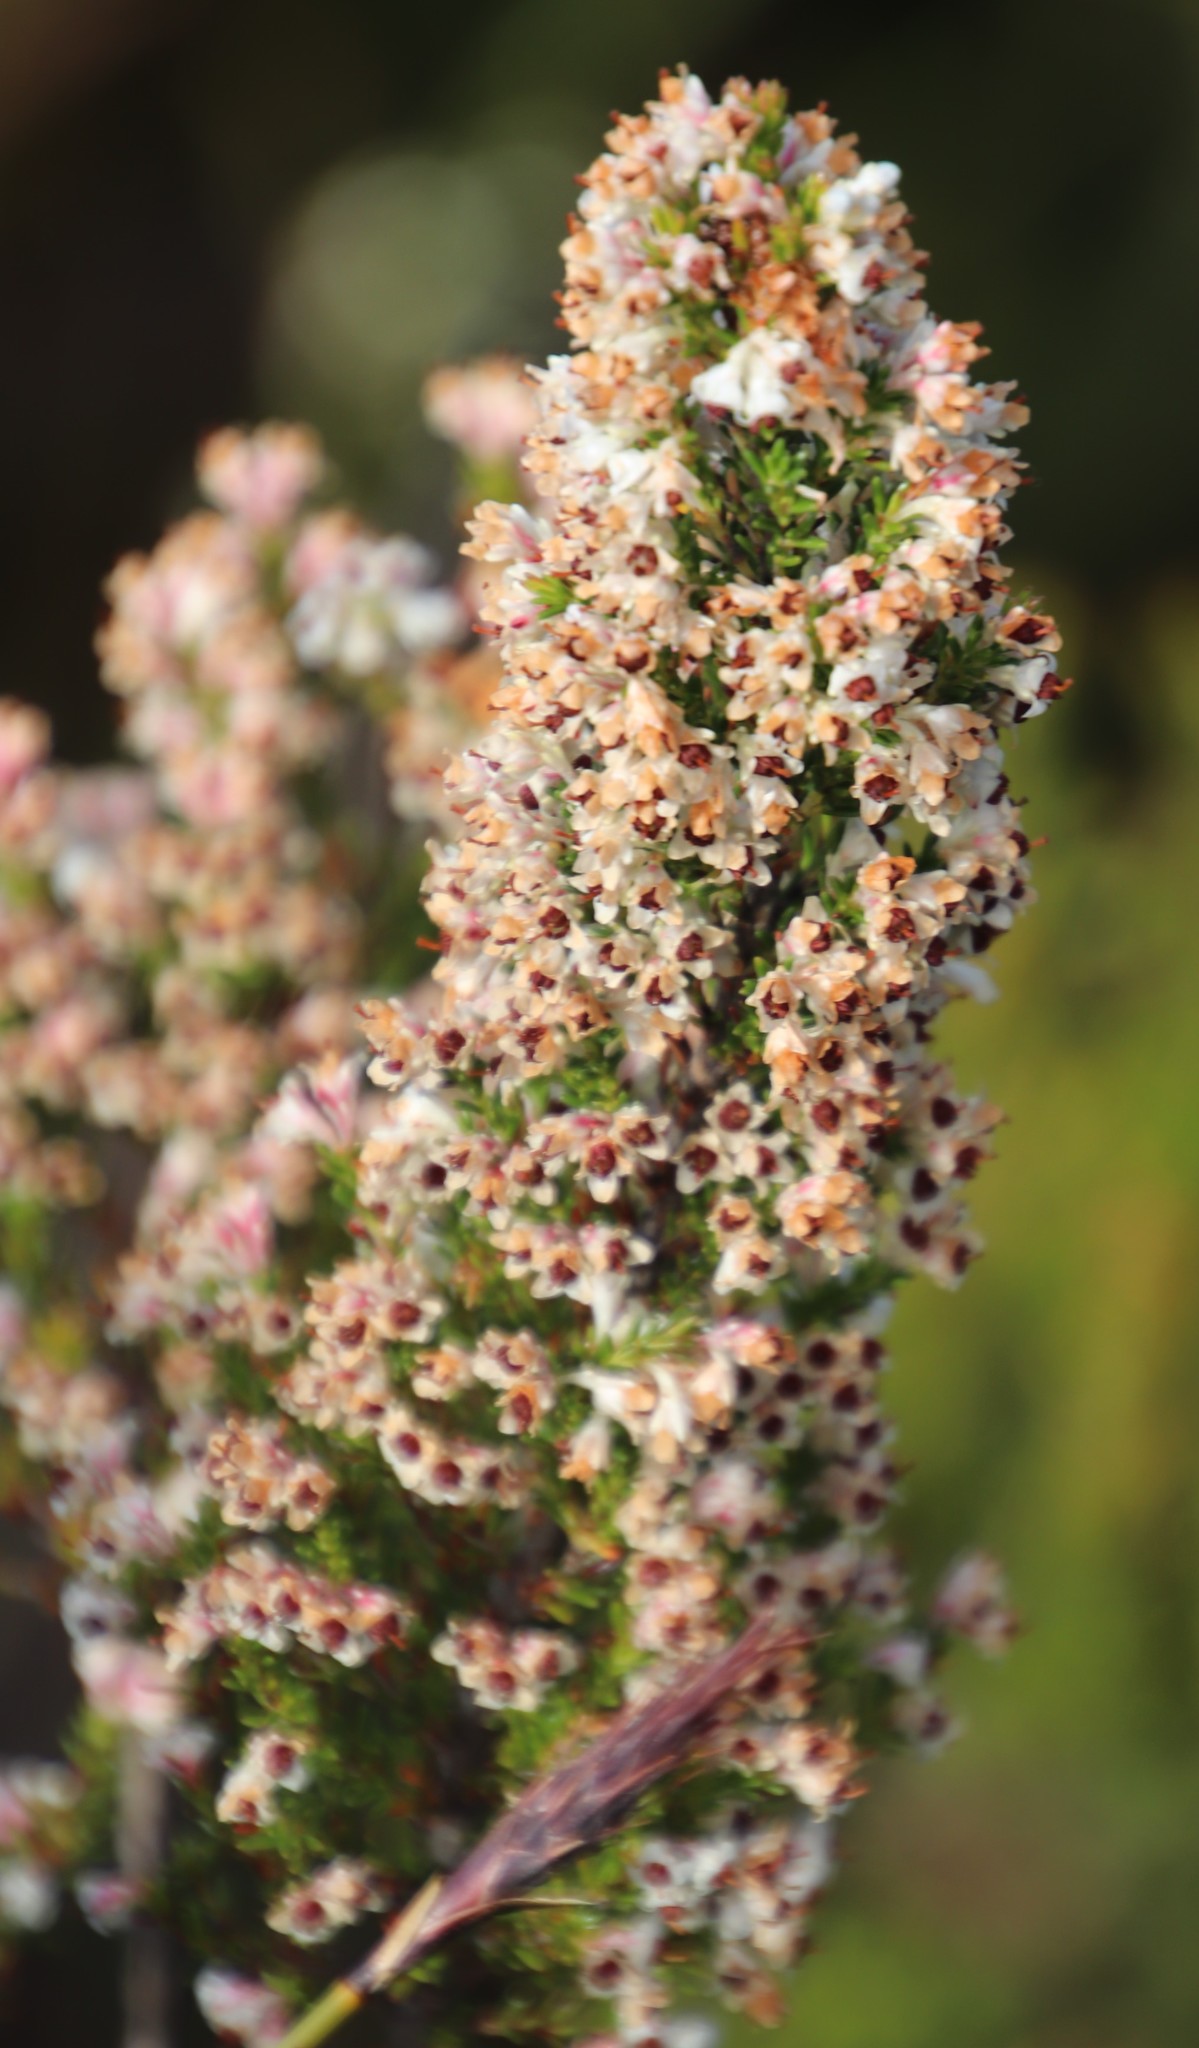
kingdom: Plantae
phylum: Tracheophyta
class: Magnoliopsida
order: Ericales
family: Ericaceae
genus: Erica
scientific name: Erica calycina
